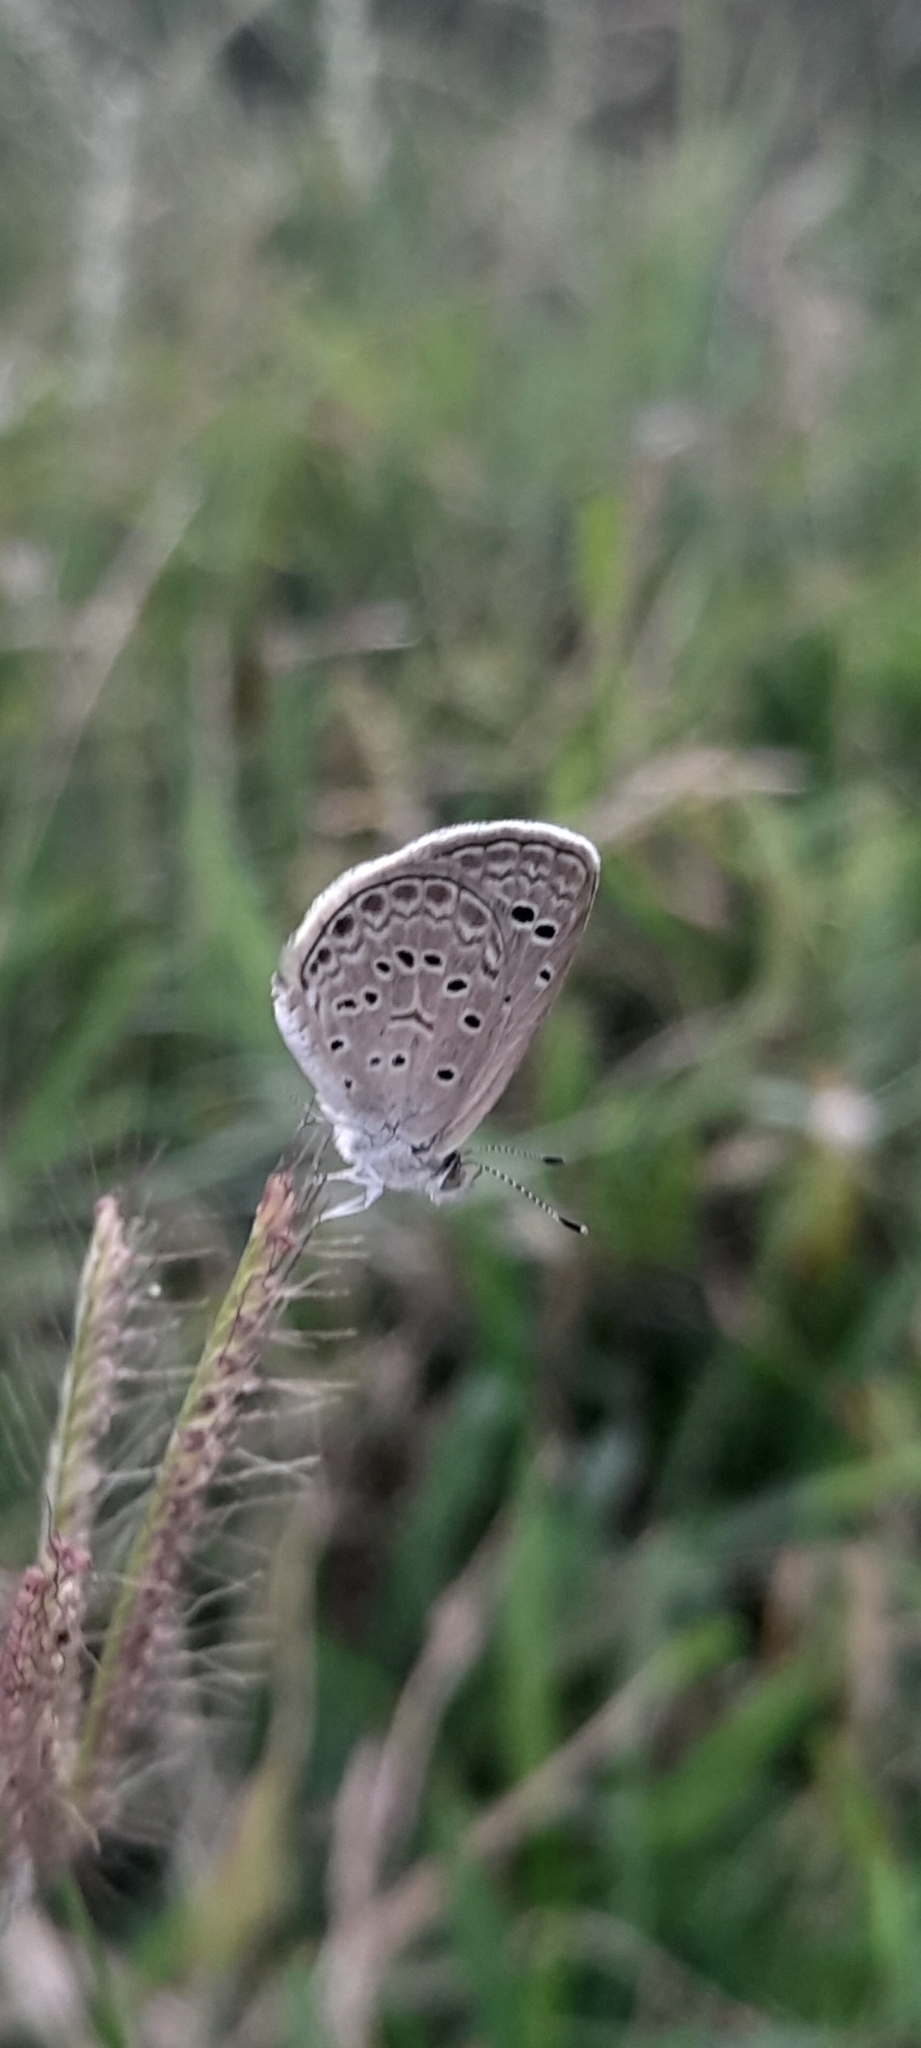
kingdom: Animalia
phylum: Arthropoda
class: Insecta
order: Lepidoptera
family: Lycaenidae
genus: Zizeeria
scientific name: Zizeeria karsandra
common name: Dark grass blue
